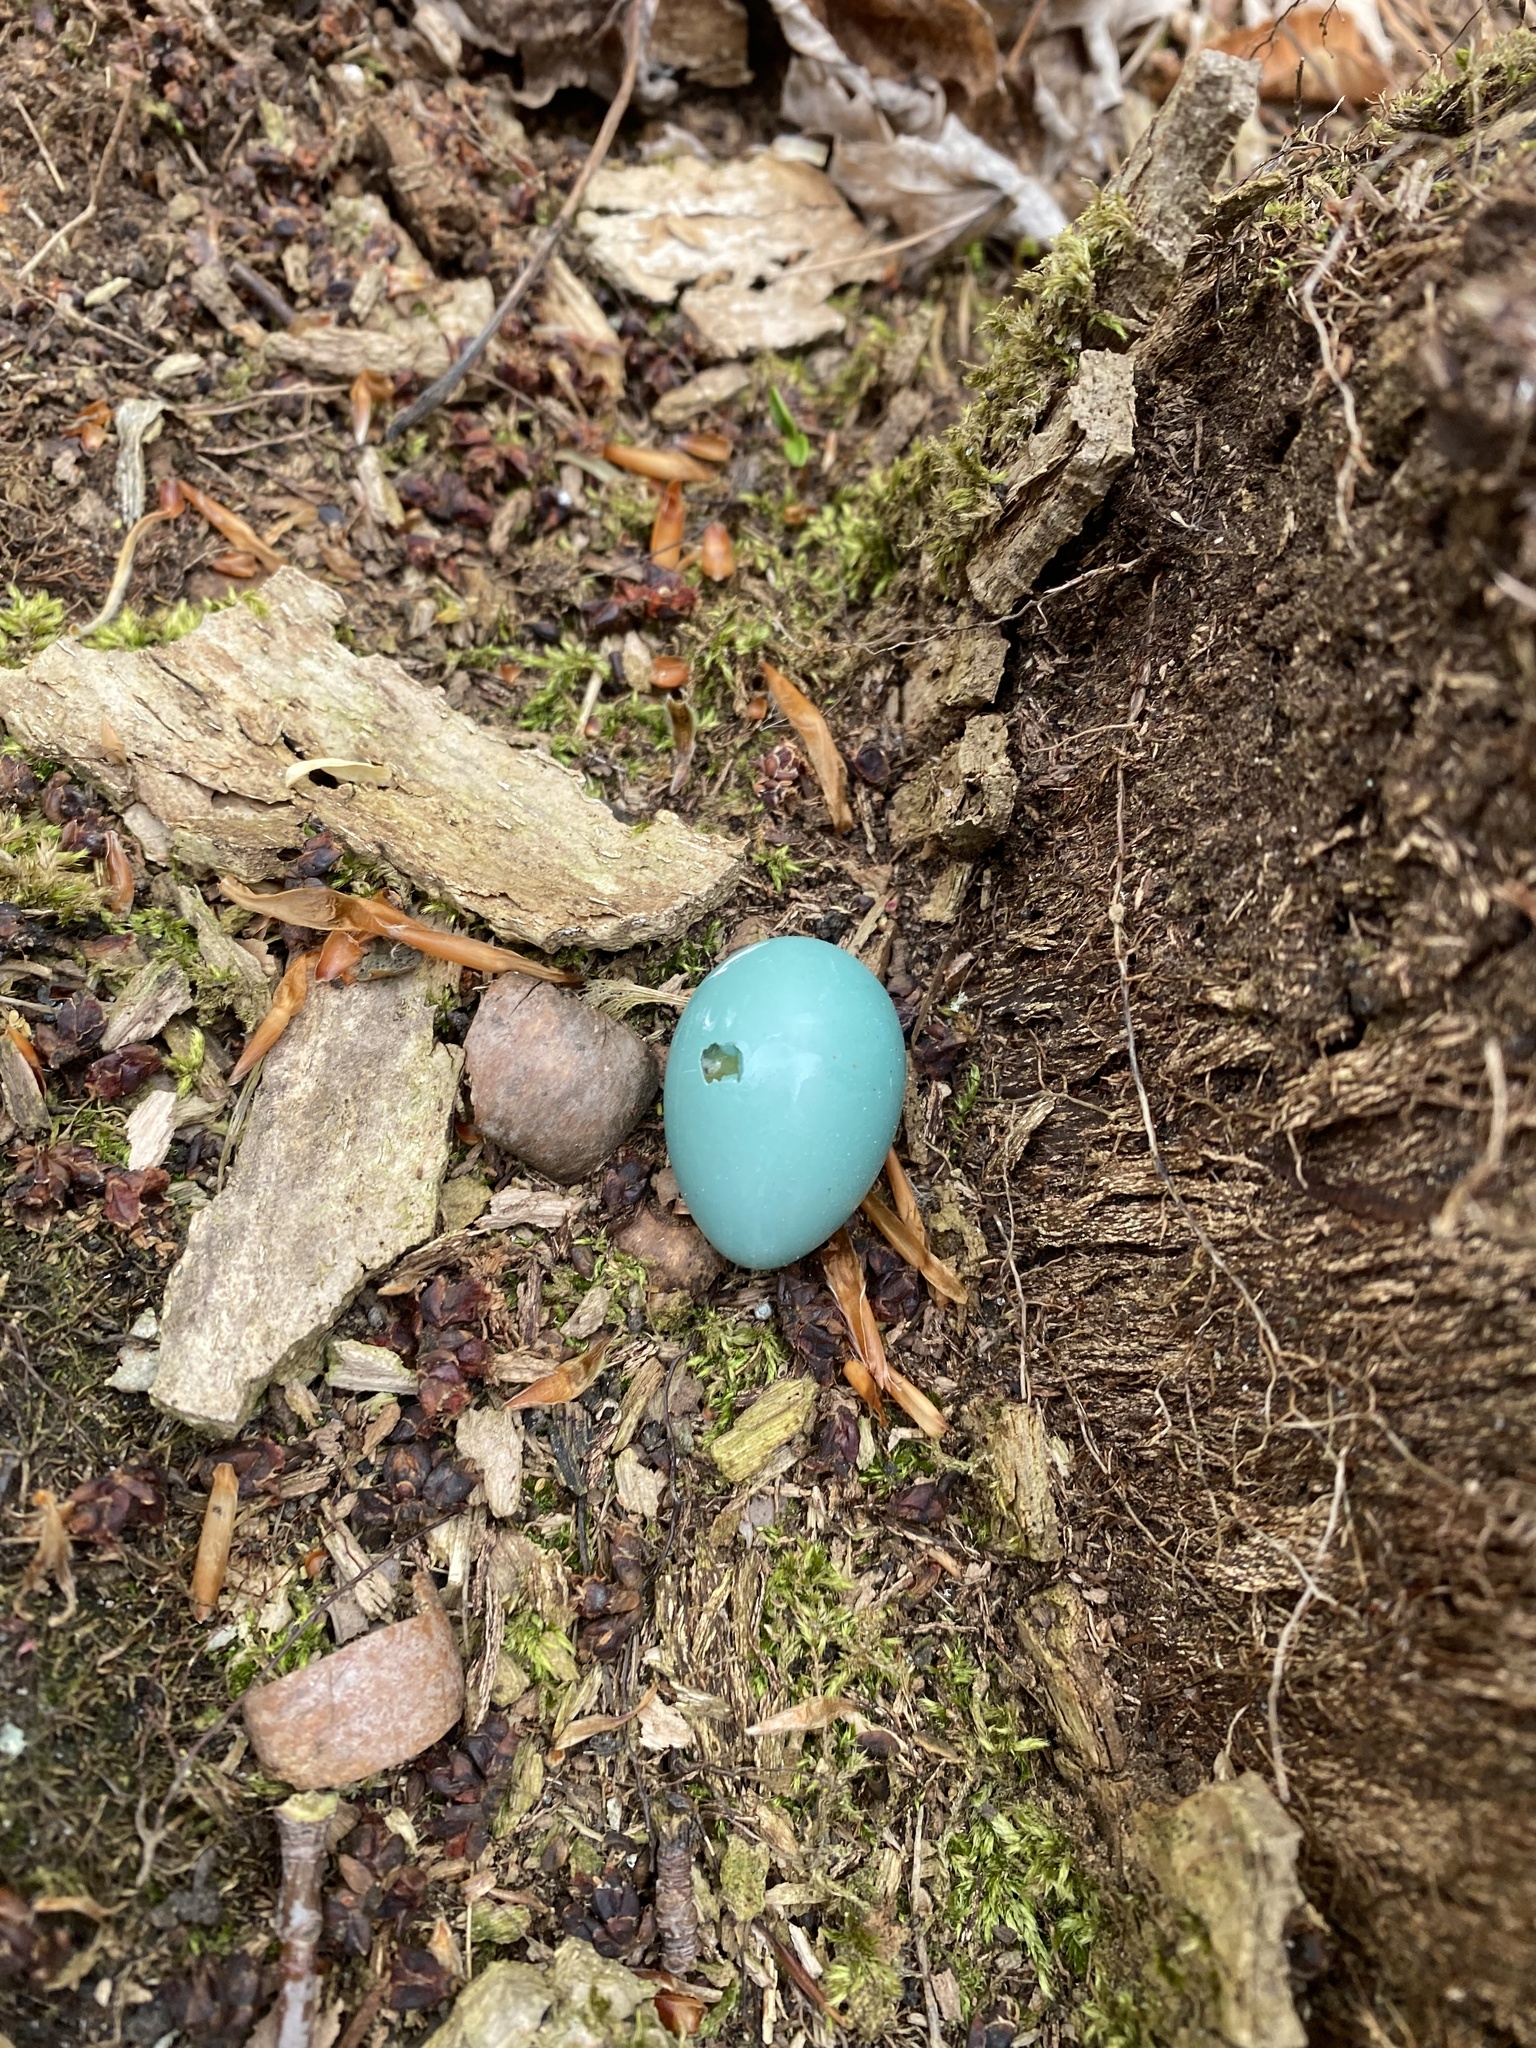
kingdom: Animalia
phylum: Chordata
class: Aves
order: Passeriformes
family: Turdidae
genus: Turdus
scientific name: Turdus migratorius
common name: American robin
